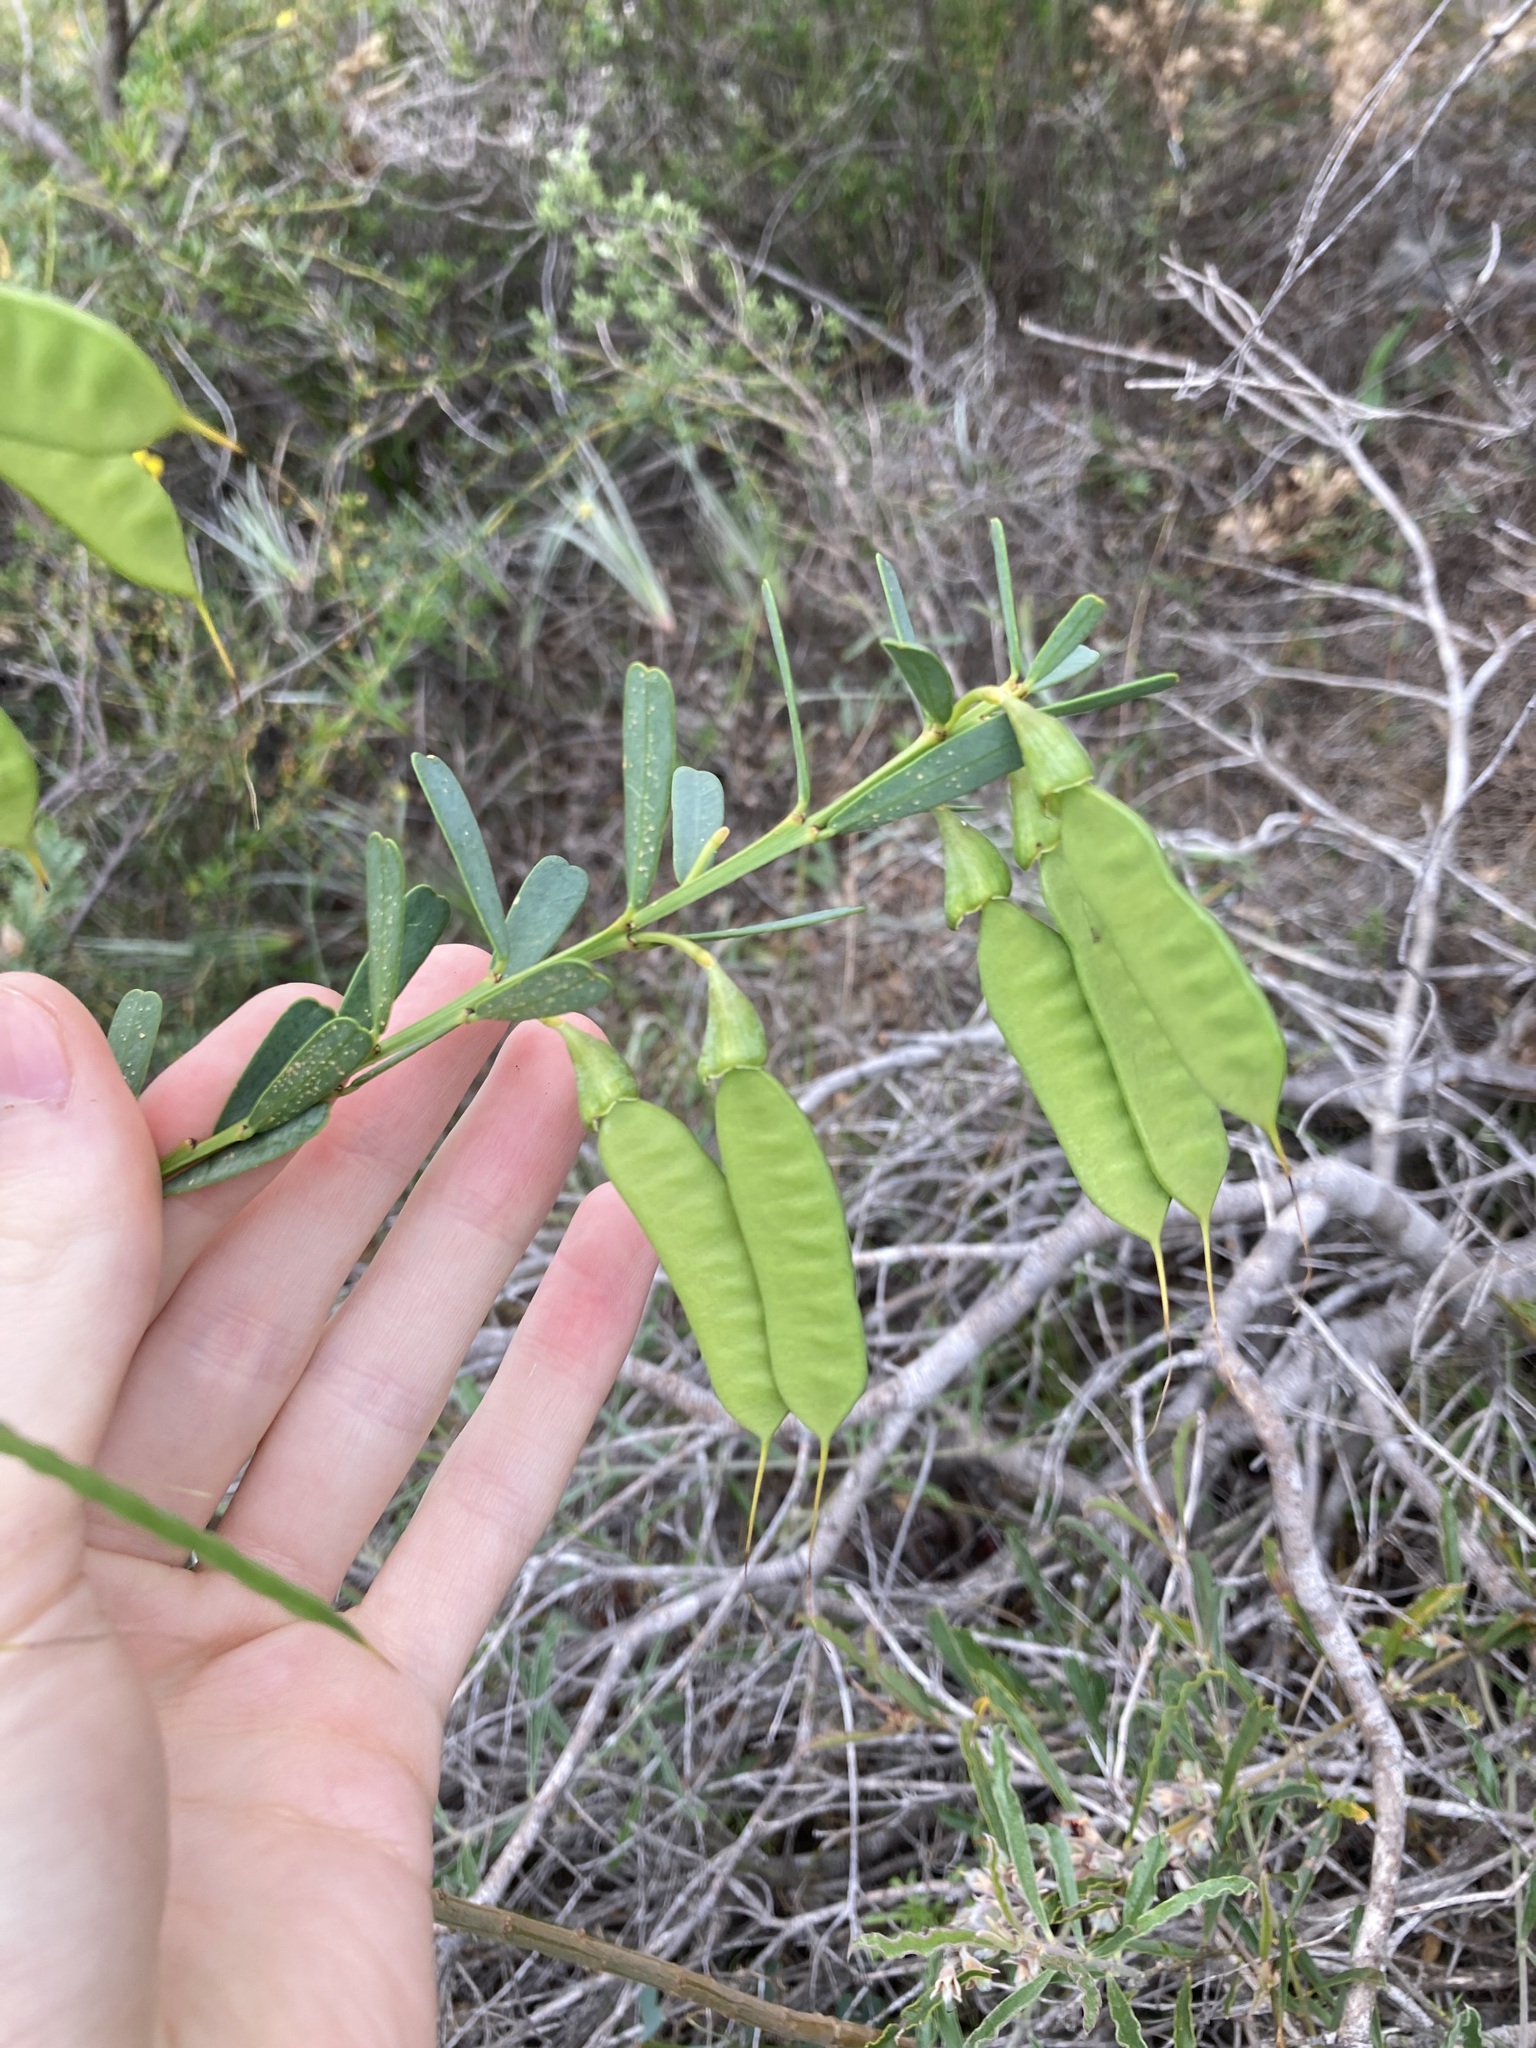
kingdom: Plantae
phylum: Tracheophyta
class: Magnoliopsida
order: Fabales
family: Fabaceae
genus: Templetonia
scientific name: Templetonia retusa
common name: Cockies'-tongue
